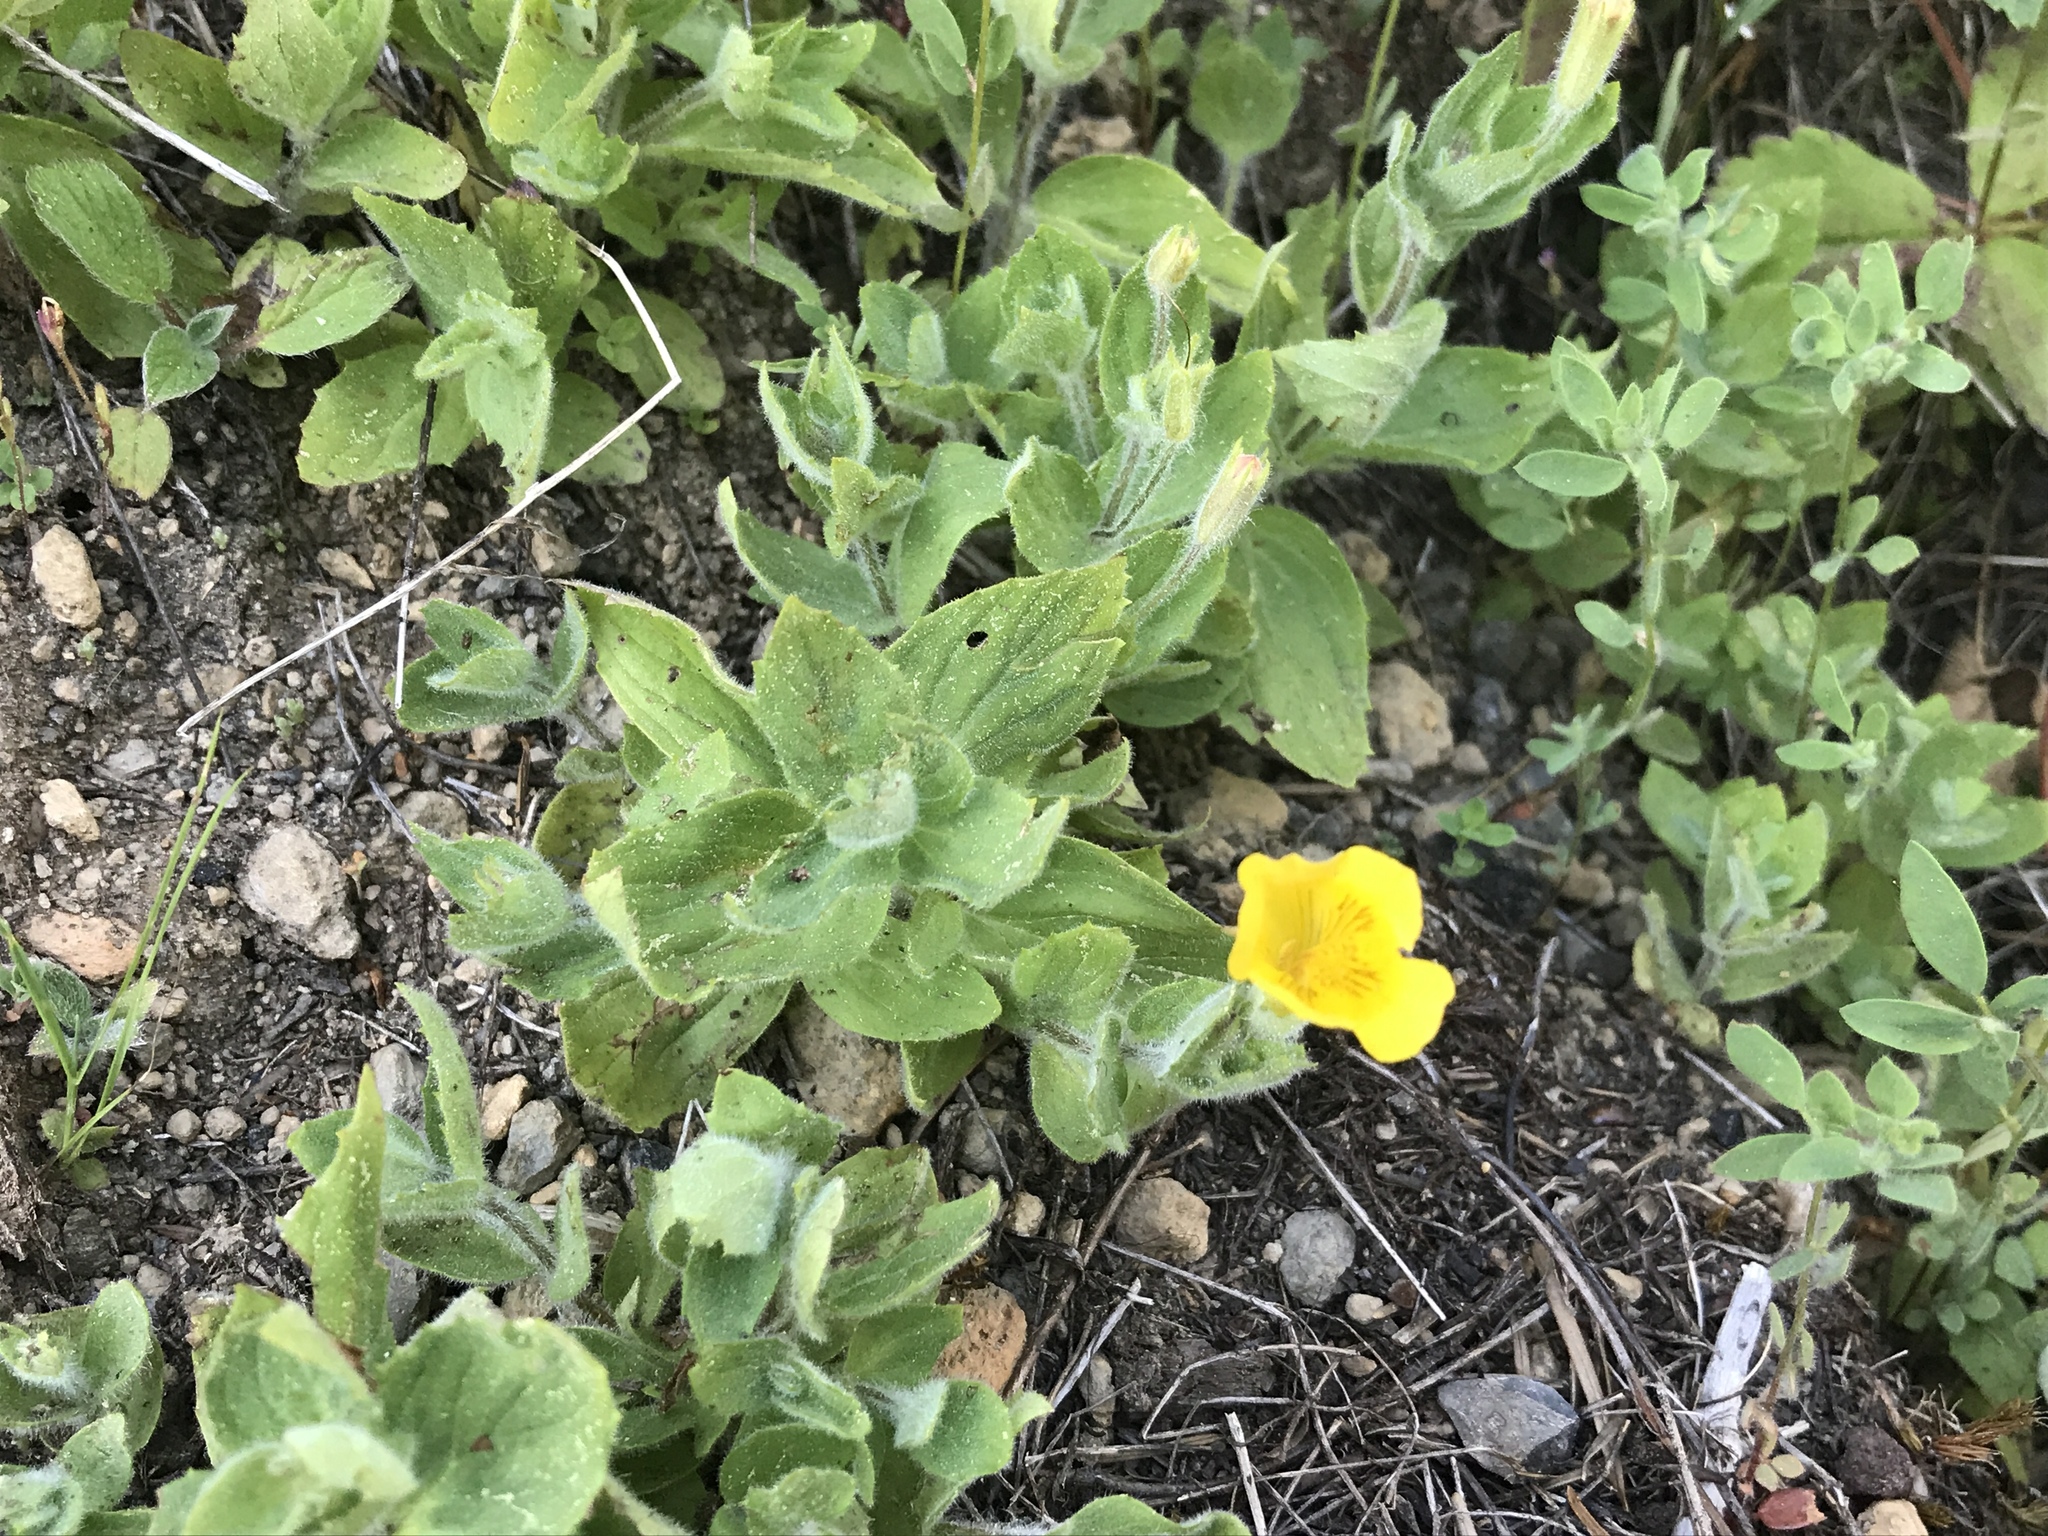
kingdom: Plantae
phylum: Tracheophyta
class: Magnoliopsida
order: Lamiales
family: Phrymaceae
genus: Erythranthe
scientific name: Erythranthe moschata
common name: Muskflower
